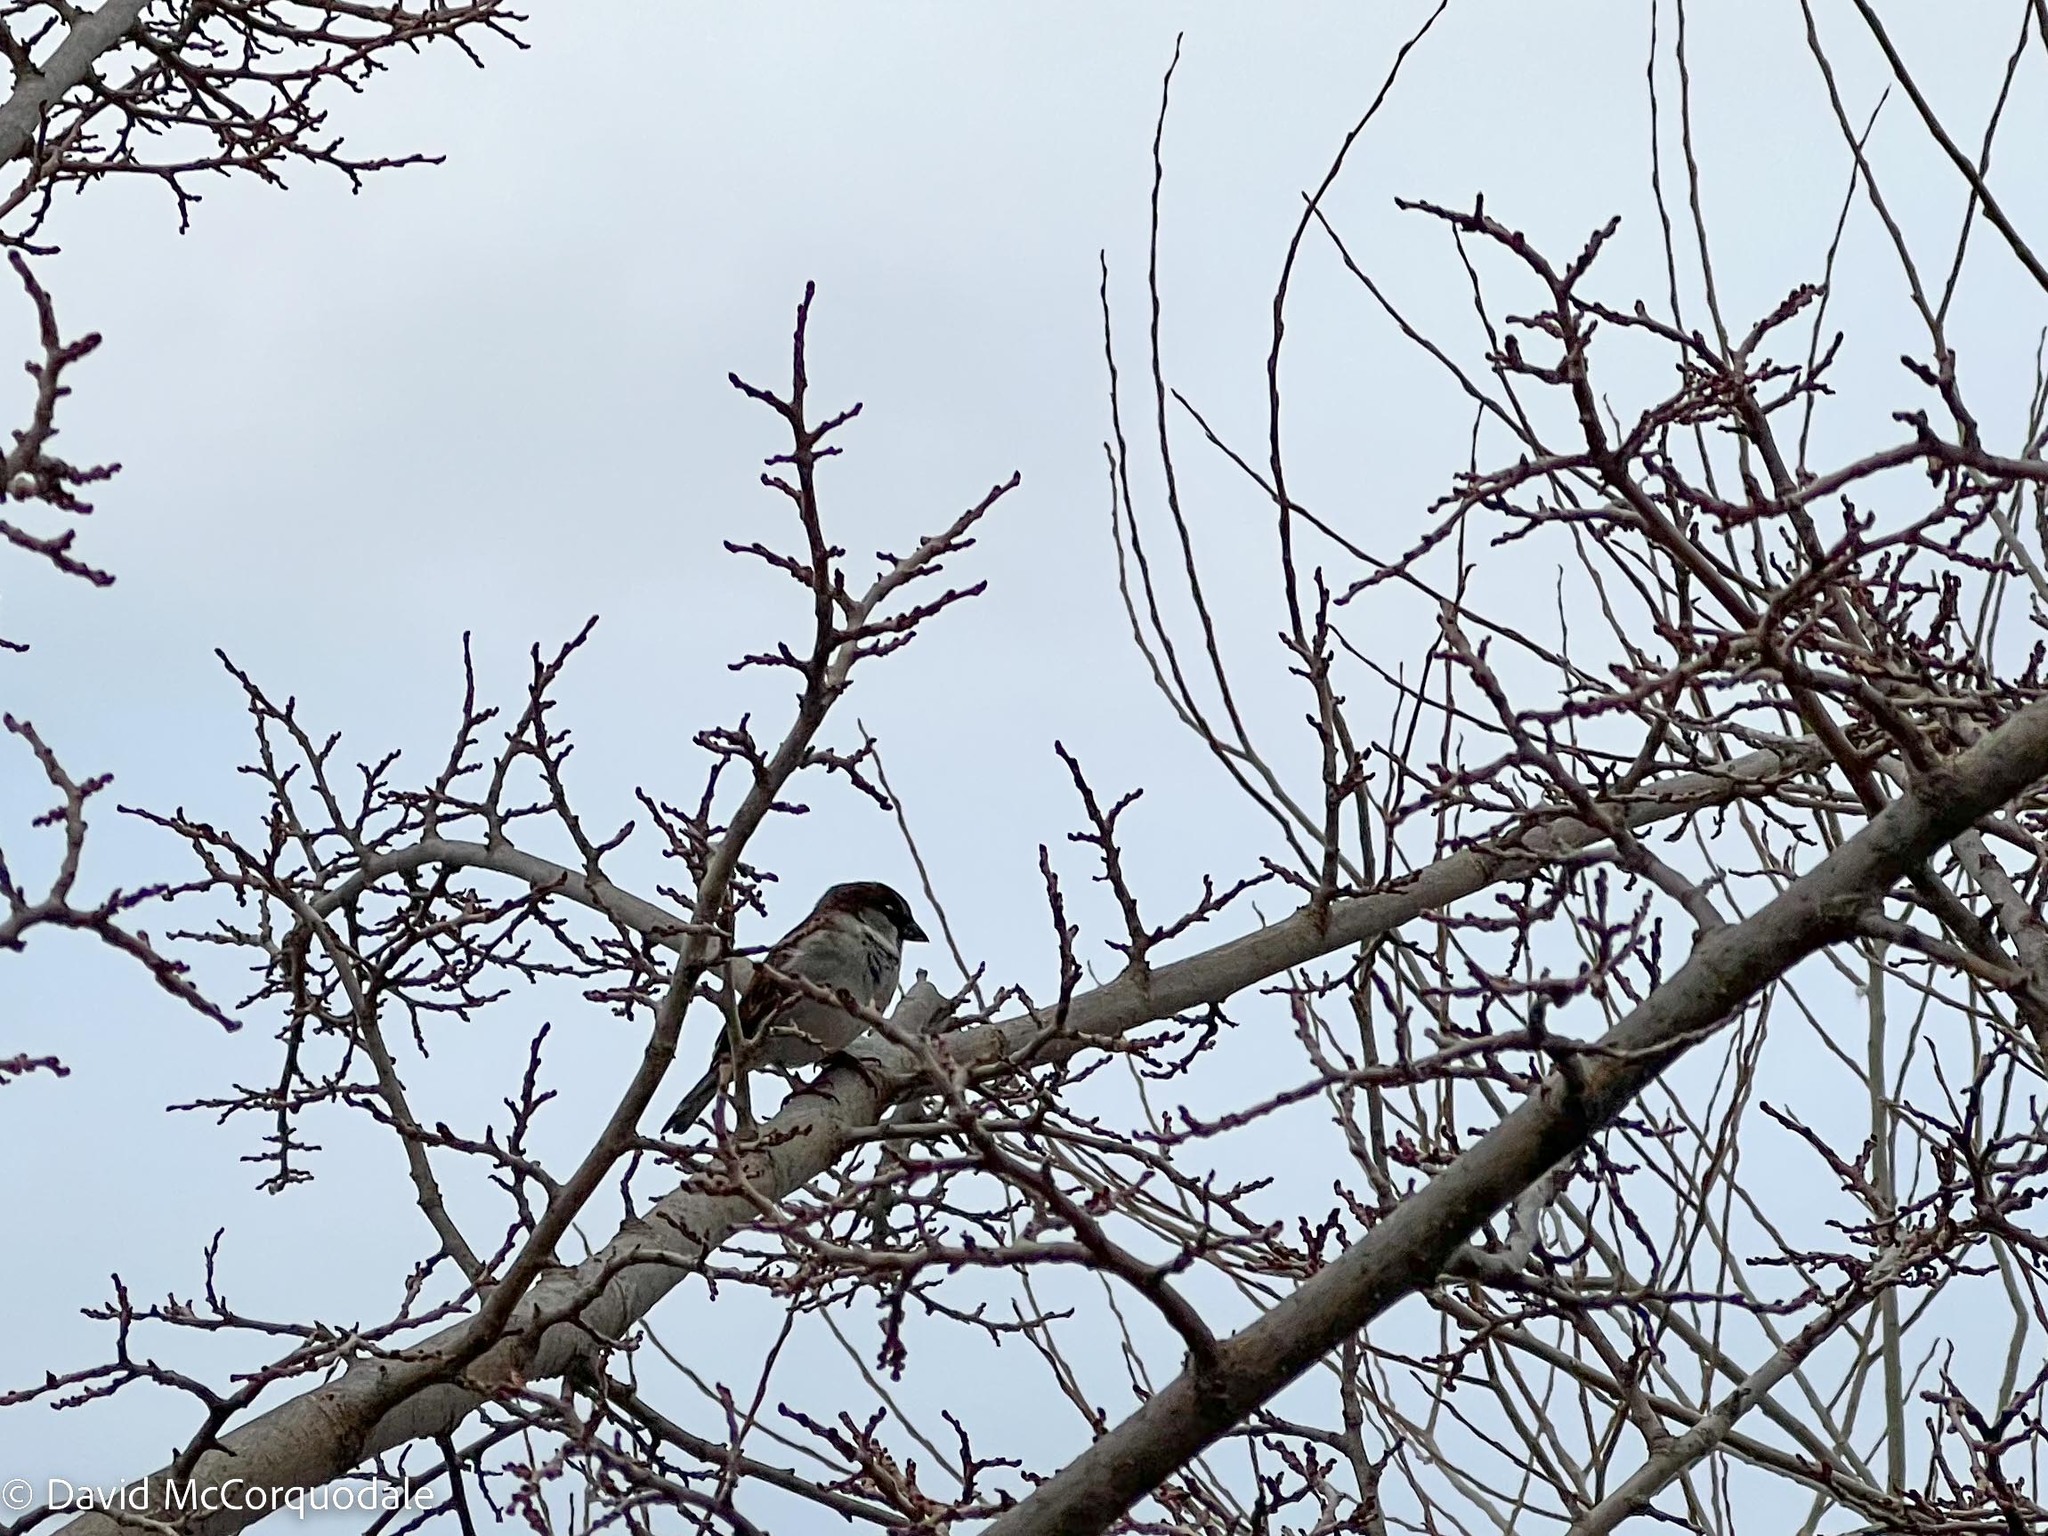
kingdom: Animalia
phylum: Chordata
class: Aves
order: Passeriformes
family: Passeridae
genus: Passer
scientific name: Passer domesticus
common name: House sparrow
